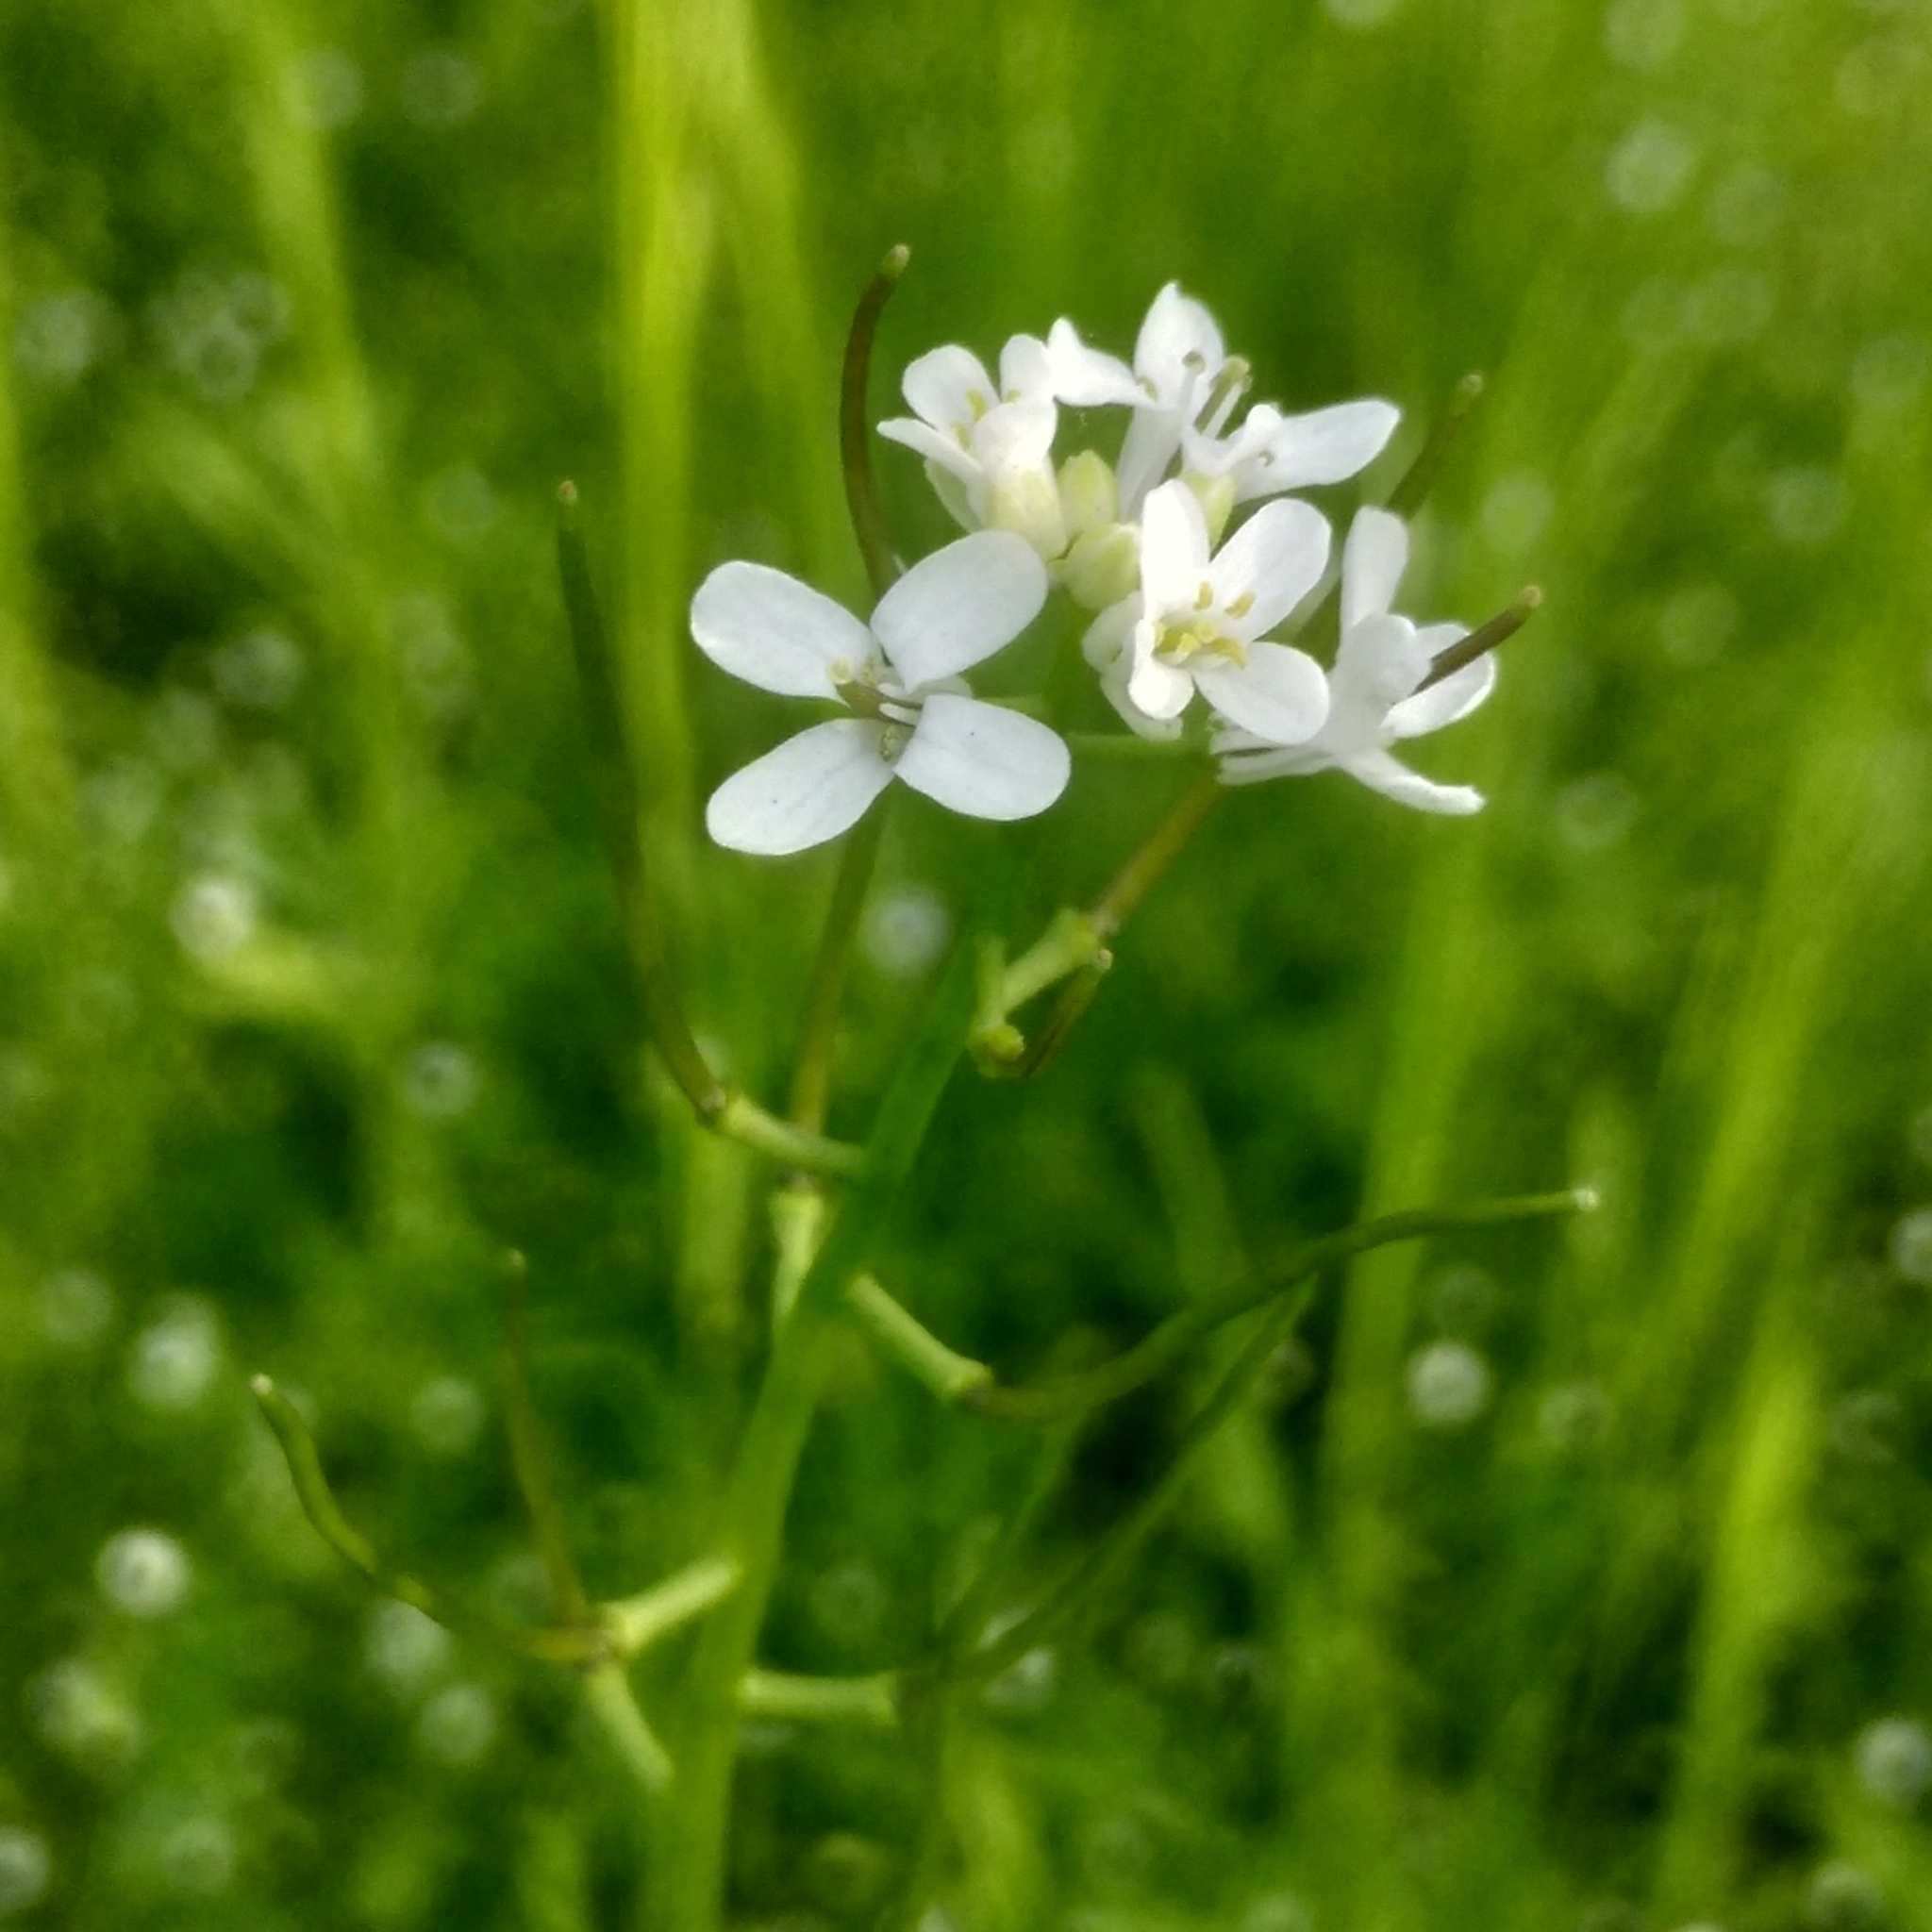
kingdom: Plantae
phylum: Tracheophyta
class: Magnoliopsida
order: Brassicales
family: Brassicaceae
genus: Alliaria
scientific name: Alliaria petiolata
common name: Garlic mustard
